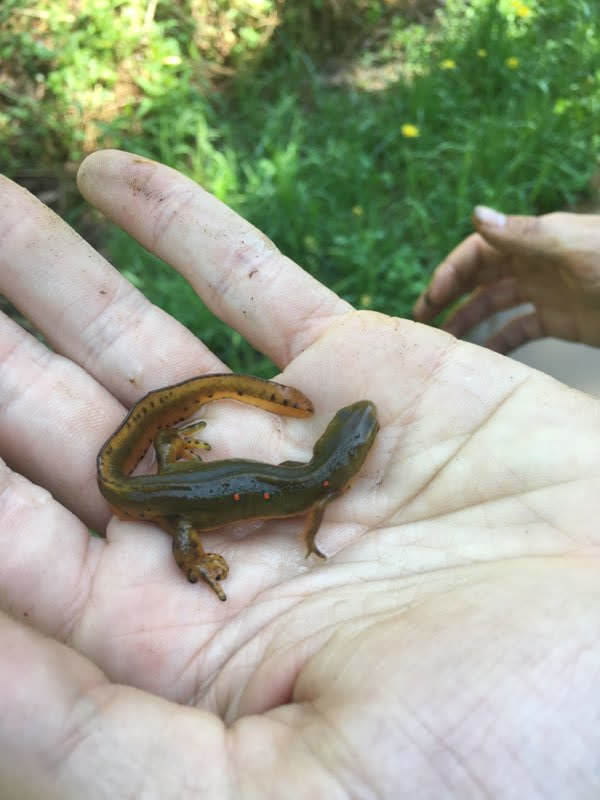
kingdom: Animalia
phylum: Chordata
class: Amphibia
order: Caudata
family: Salamandridae
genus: Notophthalmus
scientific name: Notophthalmus viridescens
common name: Eastern newt
